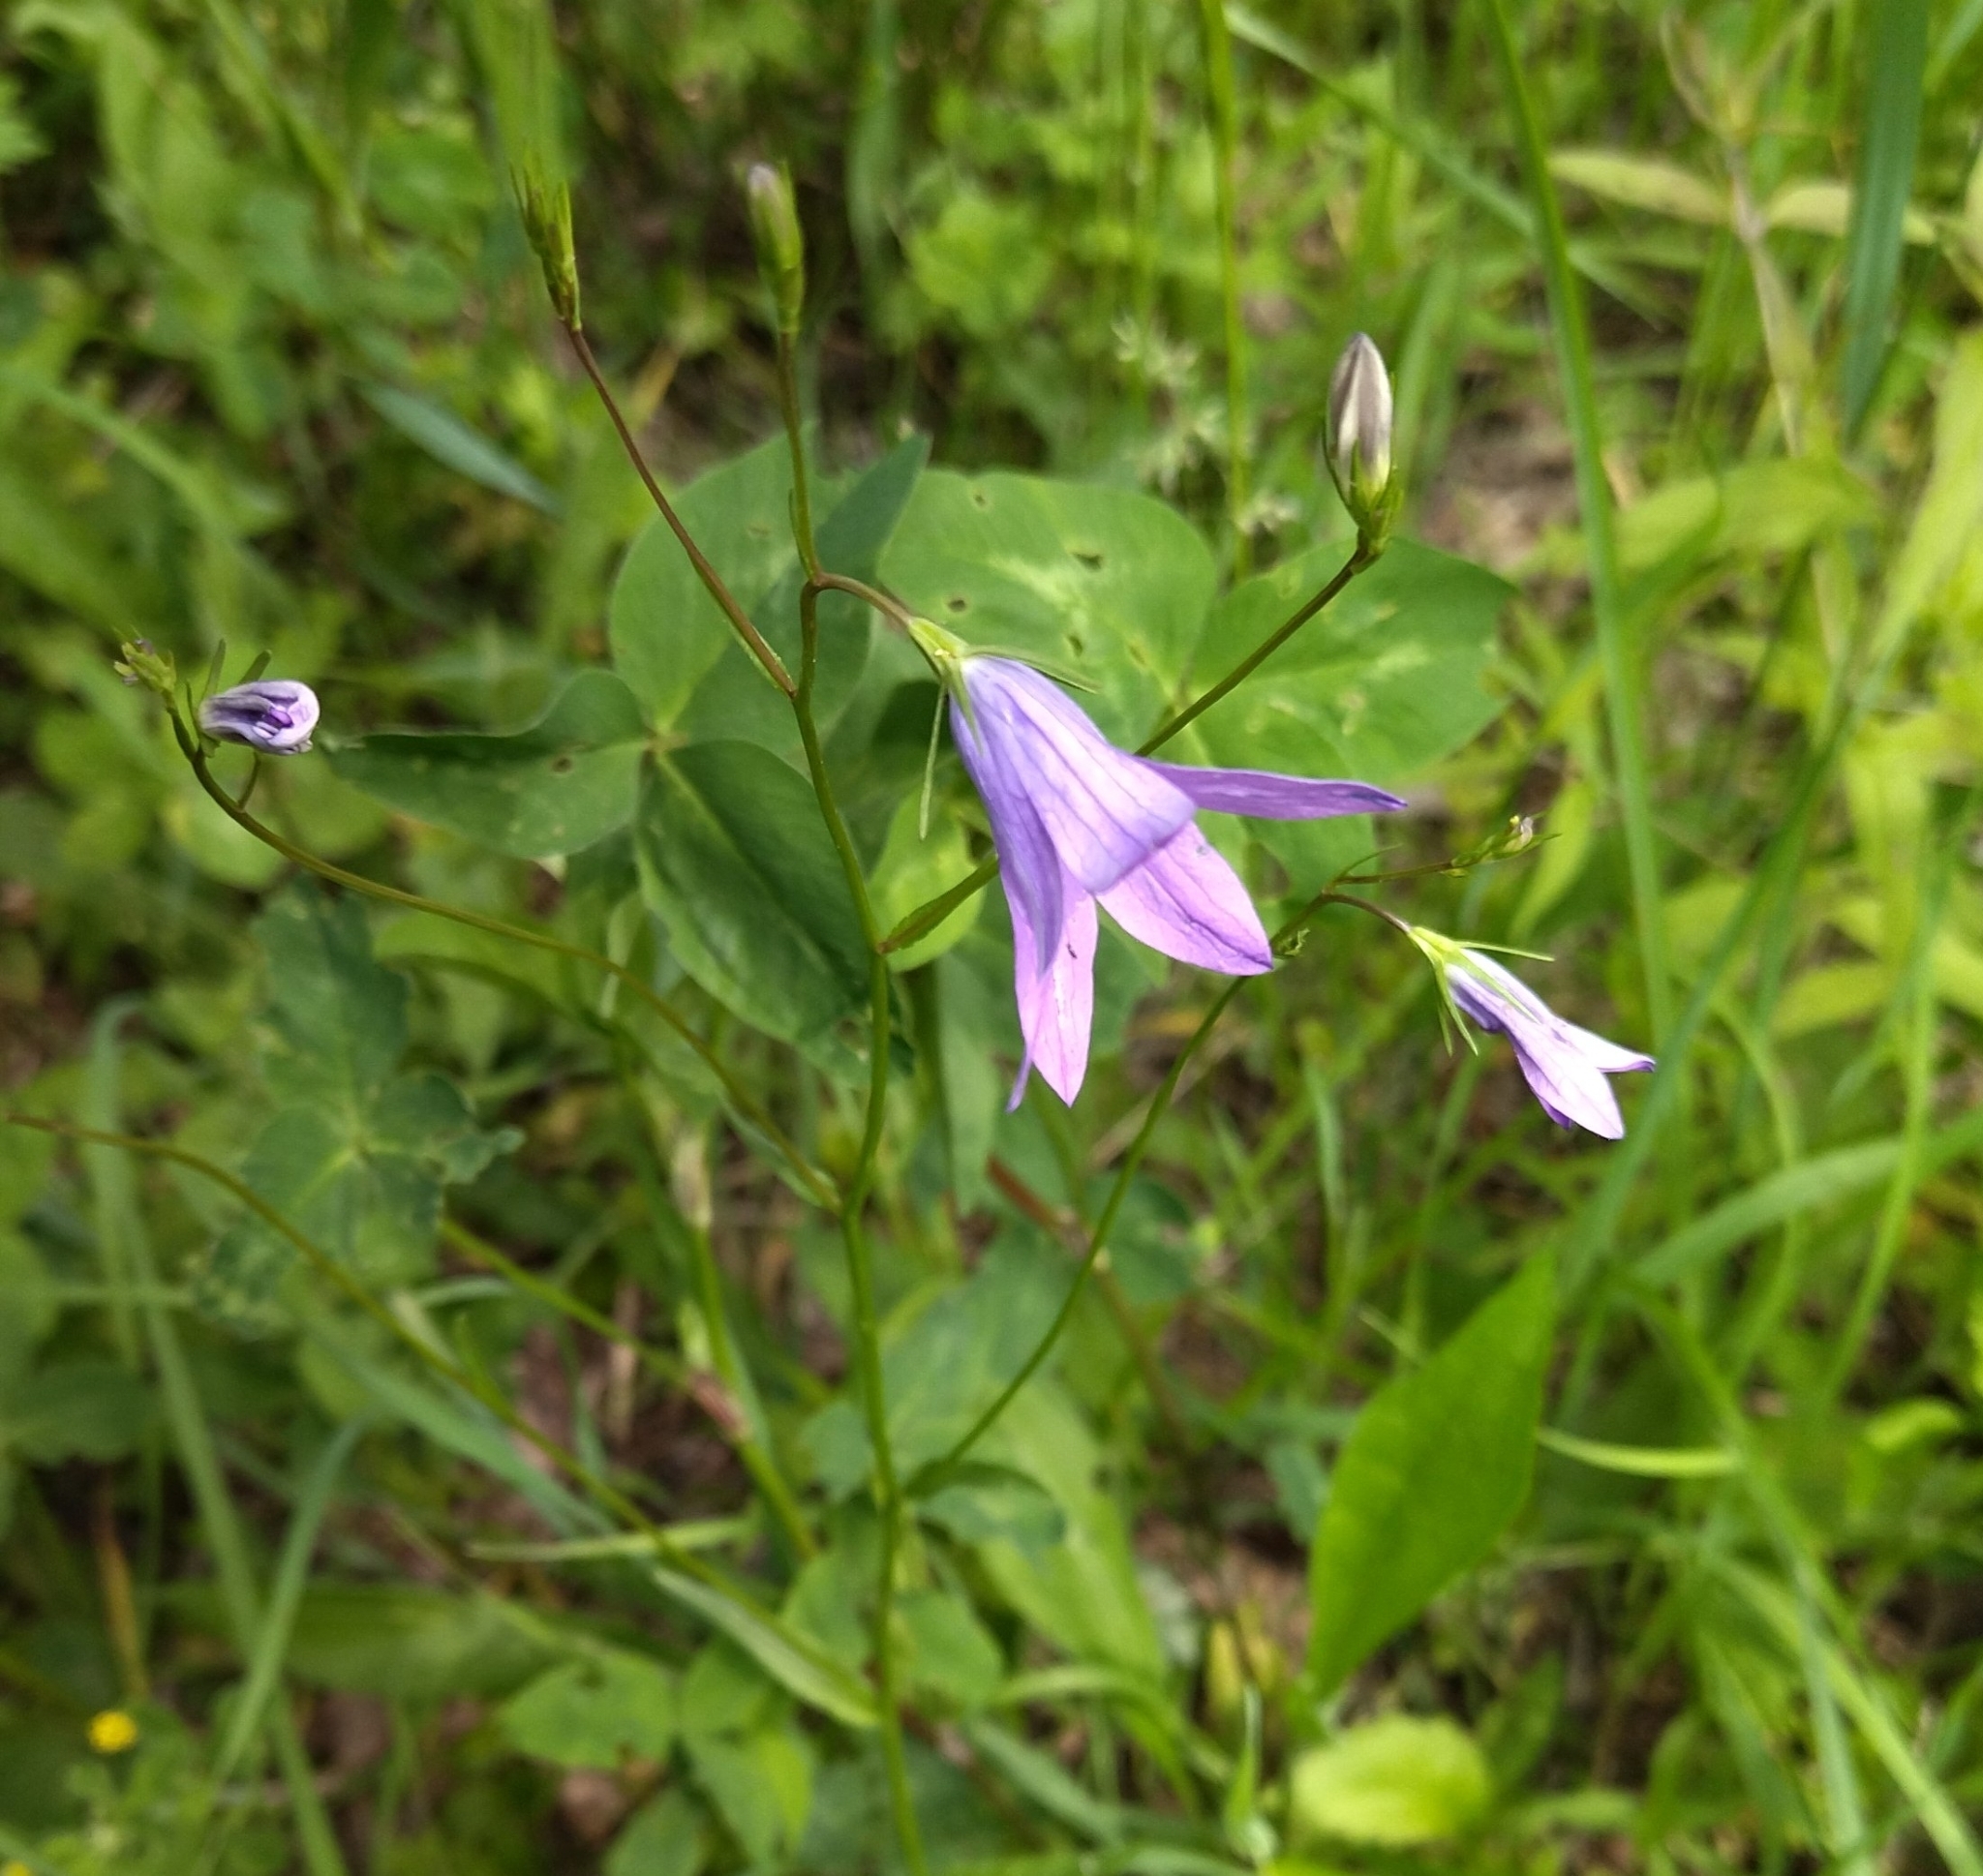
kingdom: Plantae
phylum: Tracheophyta
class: Magnoliopsida
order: Asterales
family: Campanulaceae
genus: Campanula
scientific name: Campanula patula
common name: Spreading bellflower
